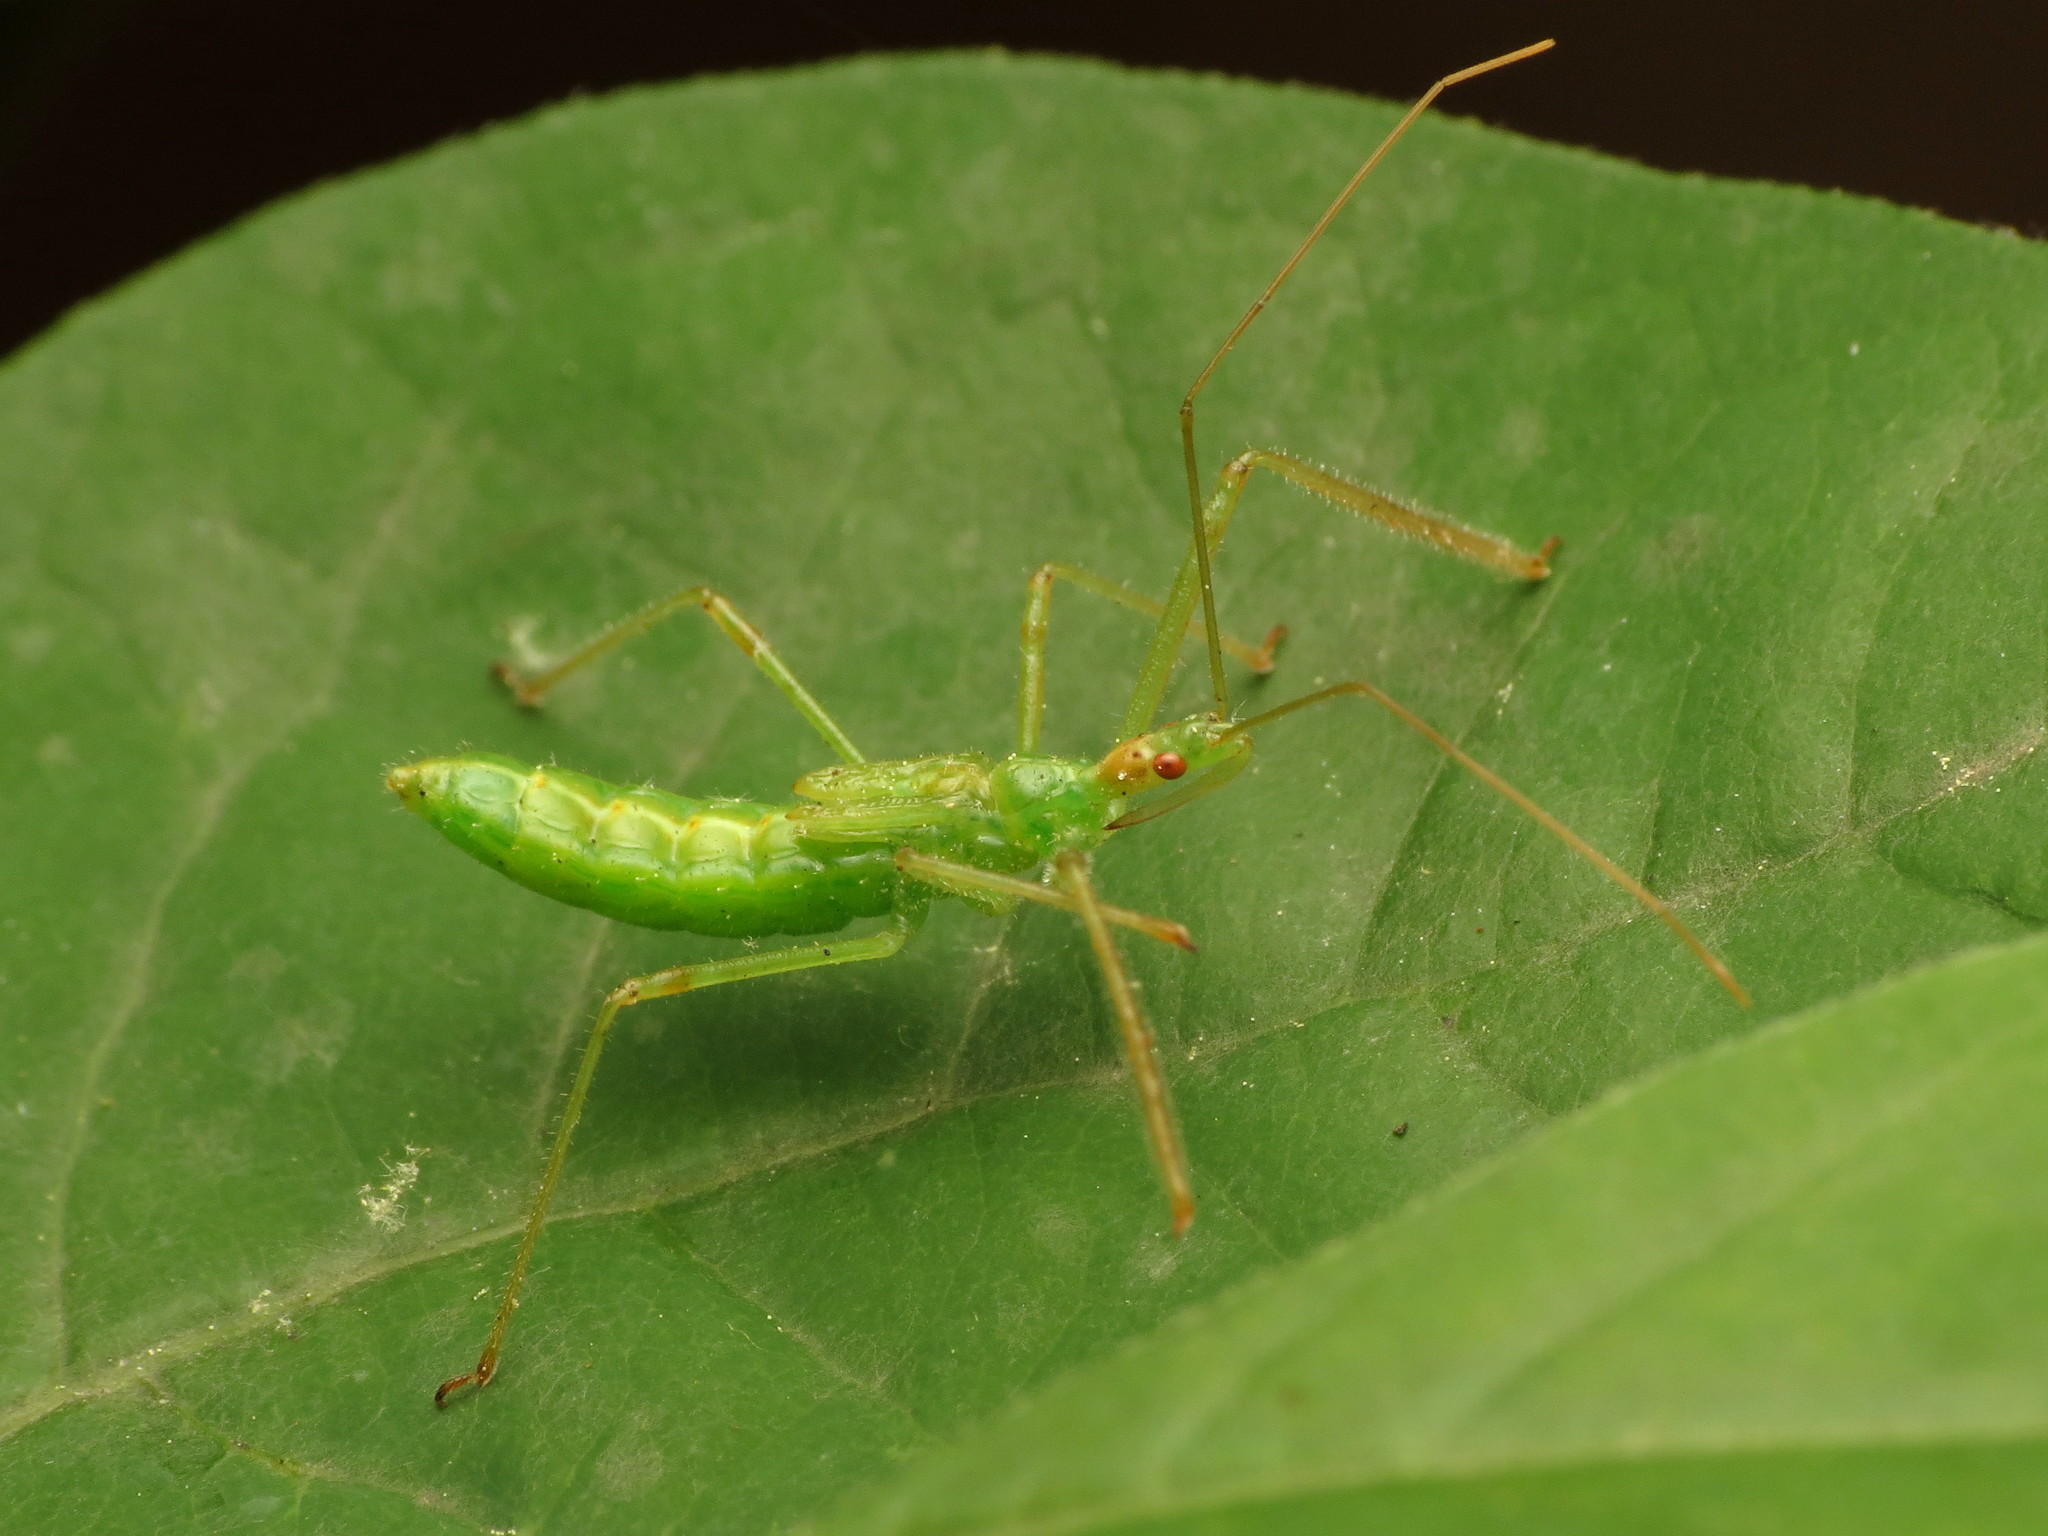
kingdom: Animalia
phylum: Arthropoda
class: Insecta
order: Hemiptera
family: Reduviidae
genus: Zelus
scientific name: Zelus luridus
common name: Pale green assassin bug
